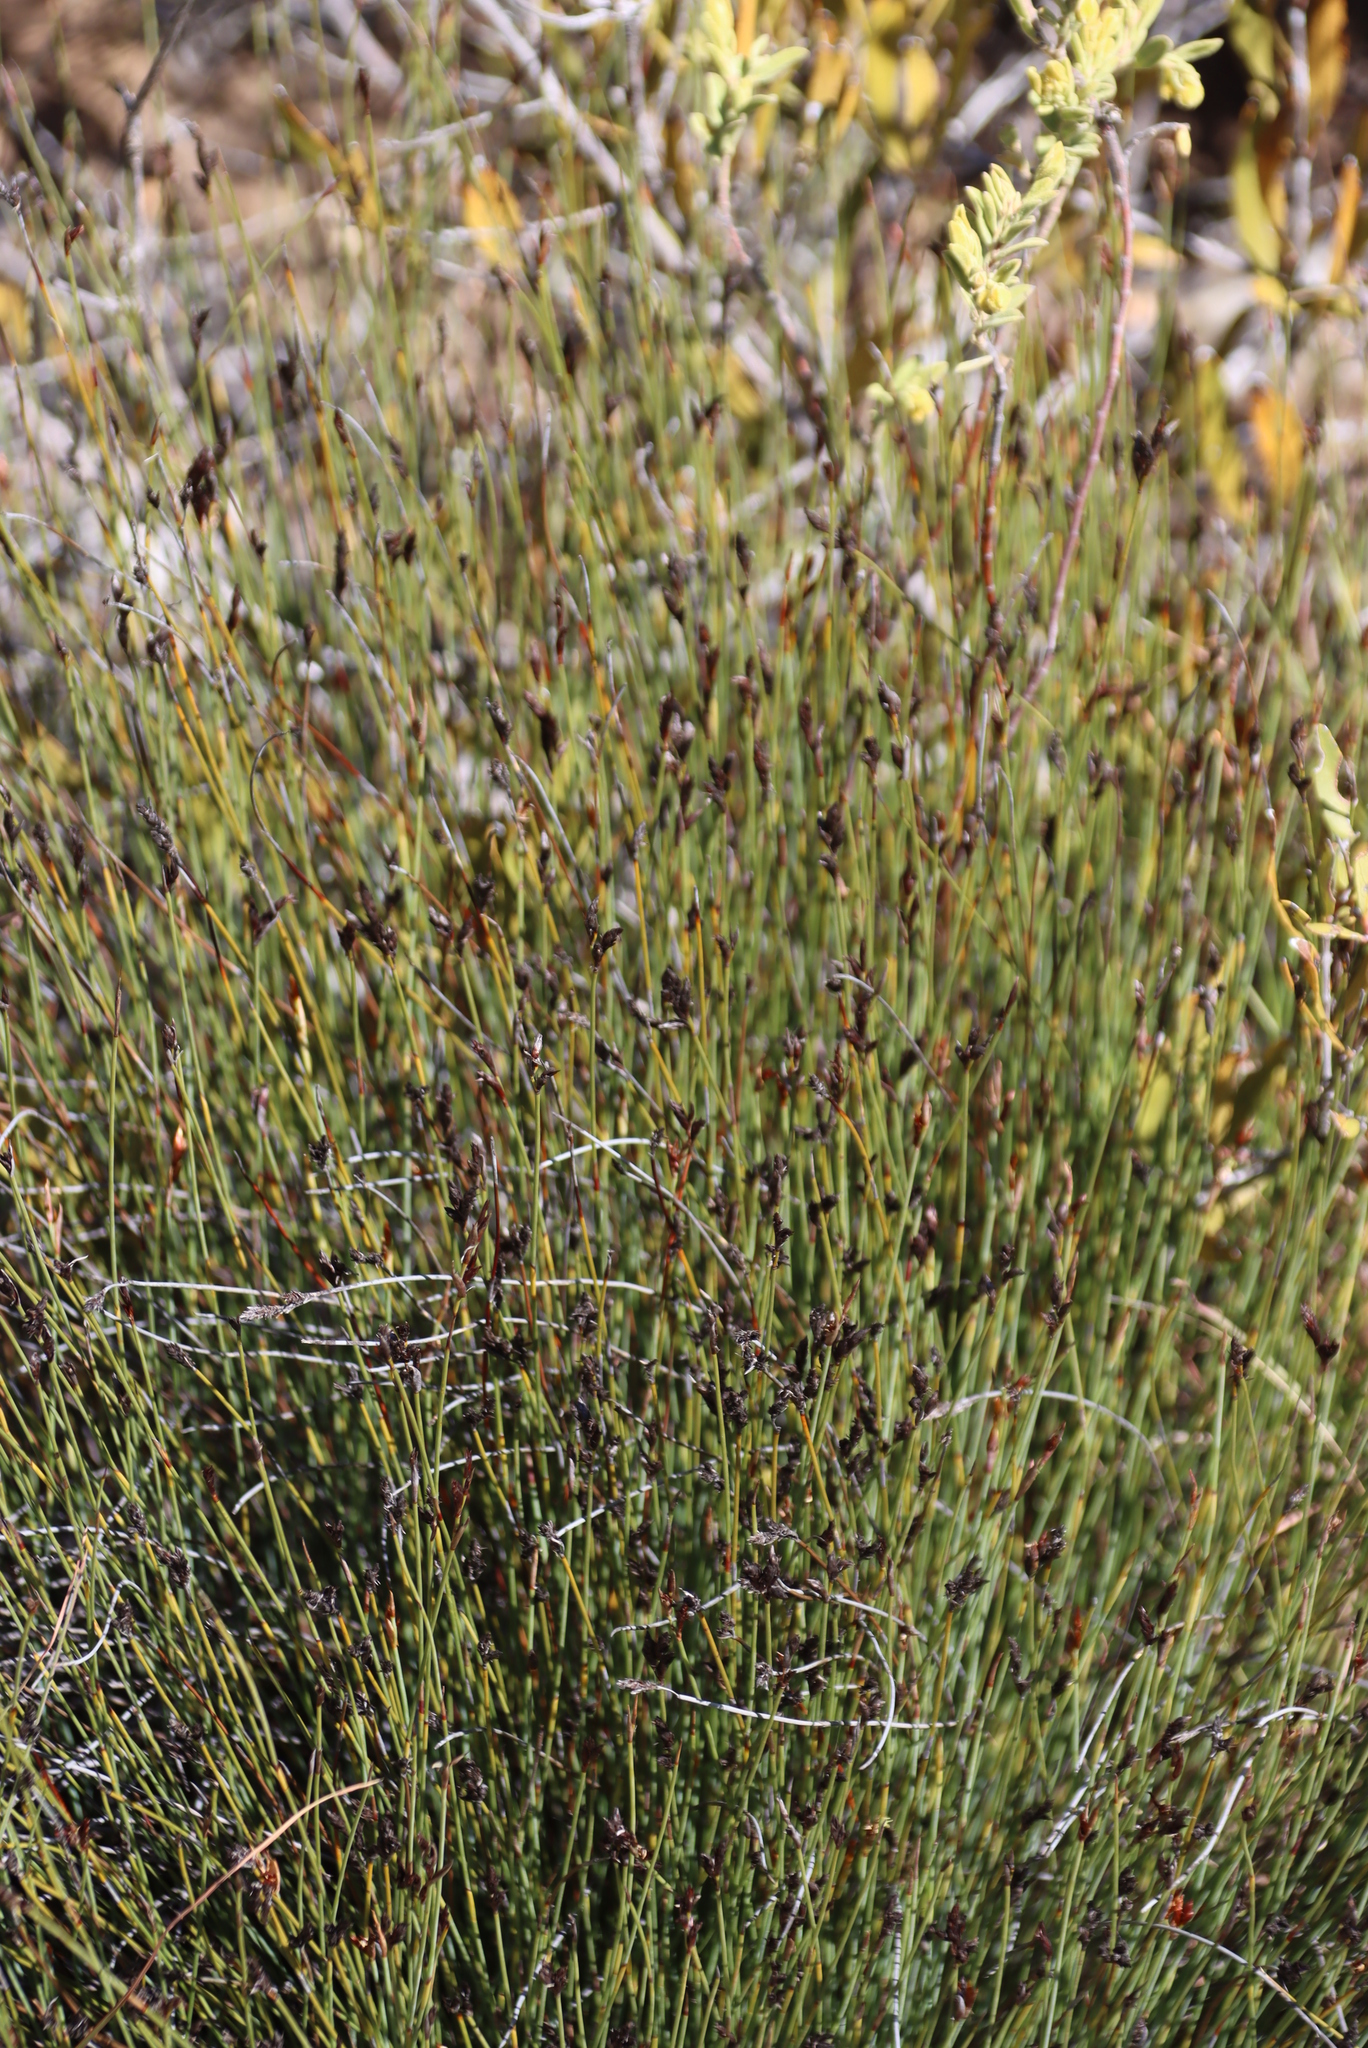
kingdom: Plantae
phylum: Tracheophyta
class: Liliopsida
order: Poales
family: Restionaceae
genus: Hypodiscus
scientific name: Hypodiscus striatus
